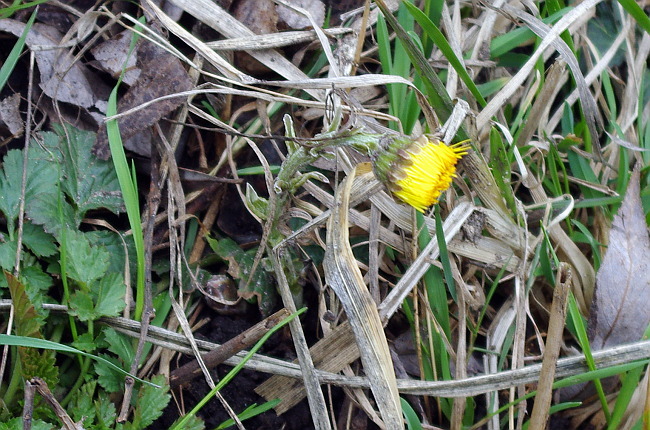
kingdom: Plantae
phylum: Tracheophyta
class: Magnoliopsida
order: Asterales
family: Asteraceae
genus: Tussilago
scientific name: Tussilago farfara
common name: Coltsfoot
